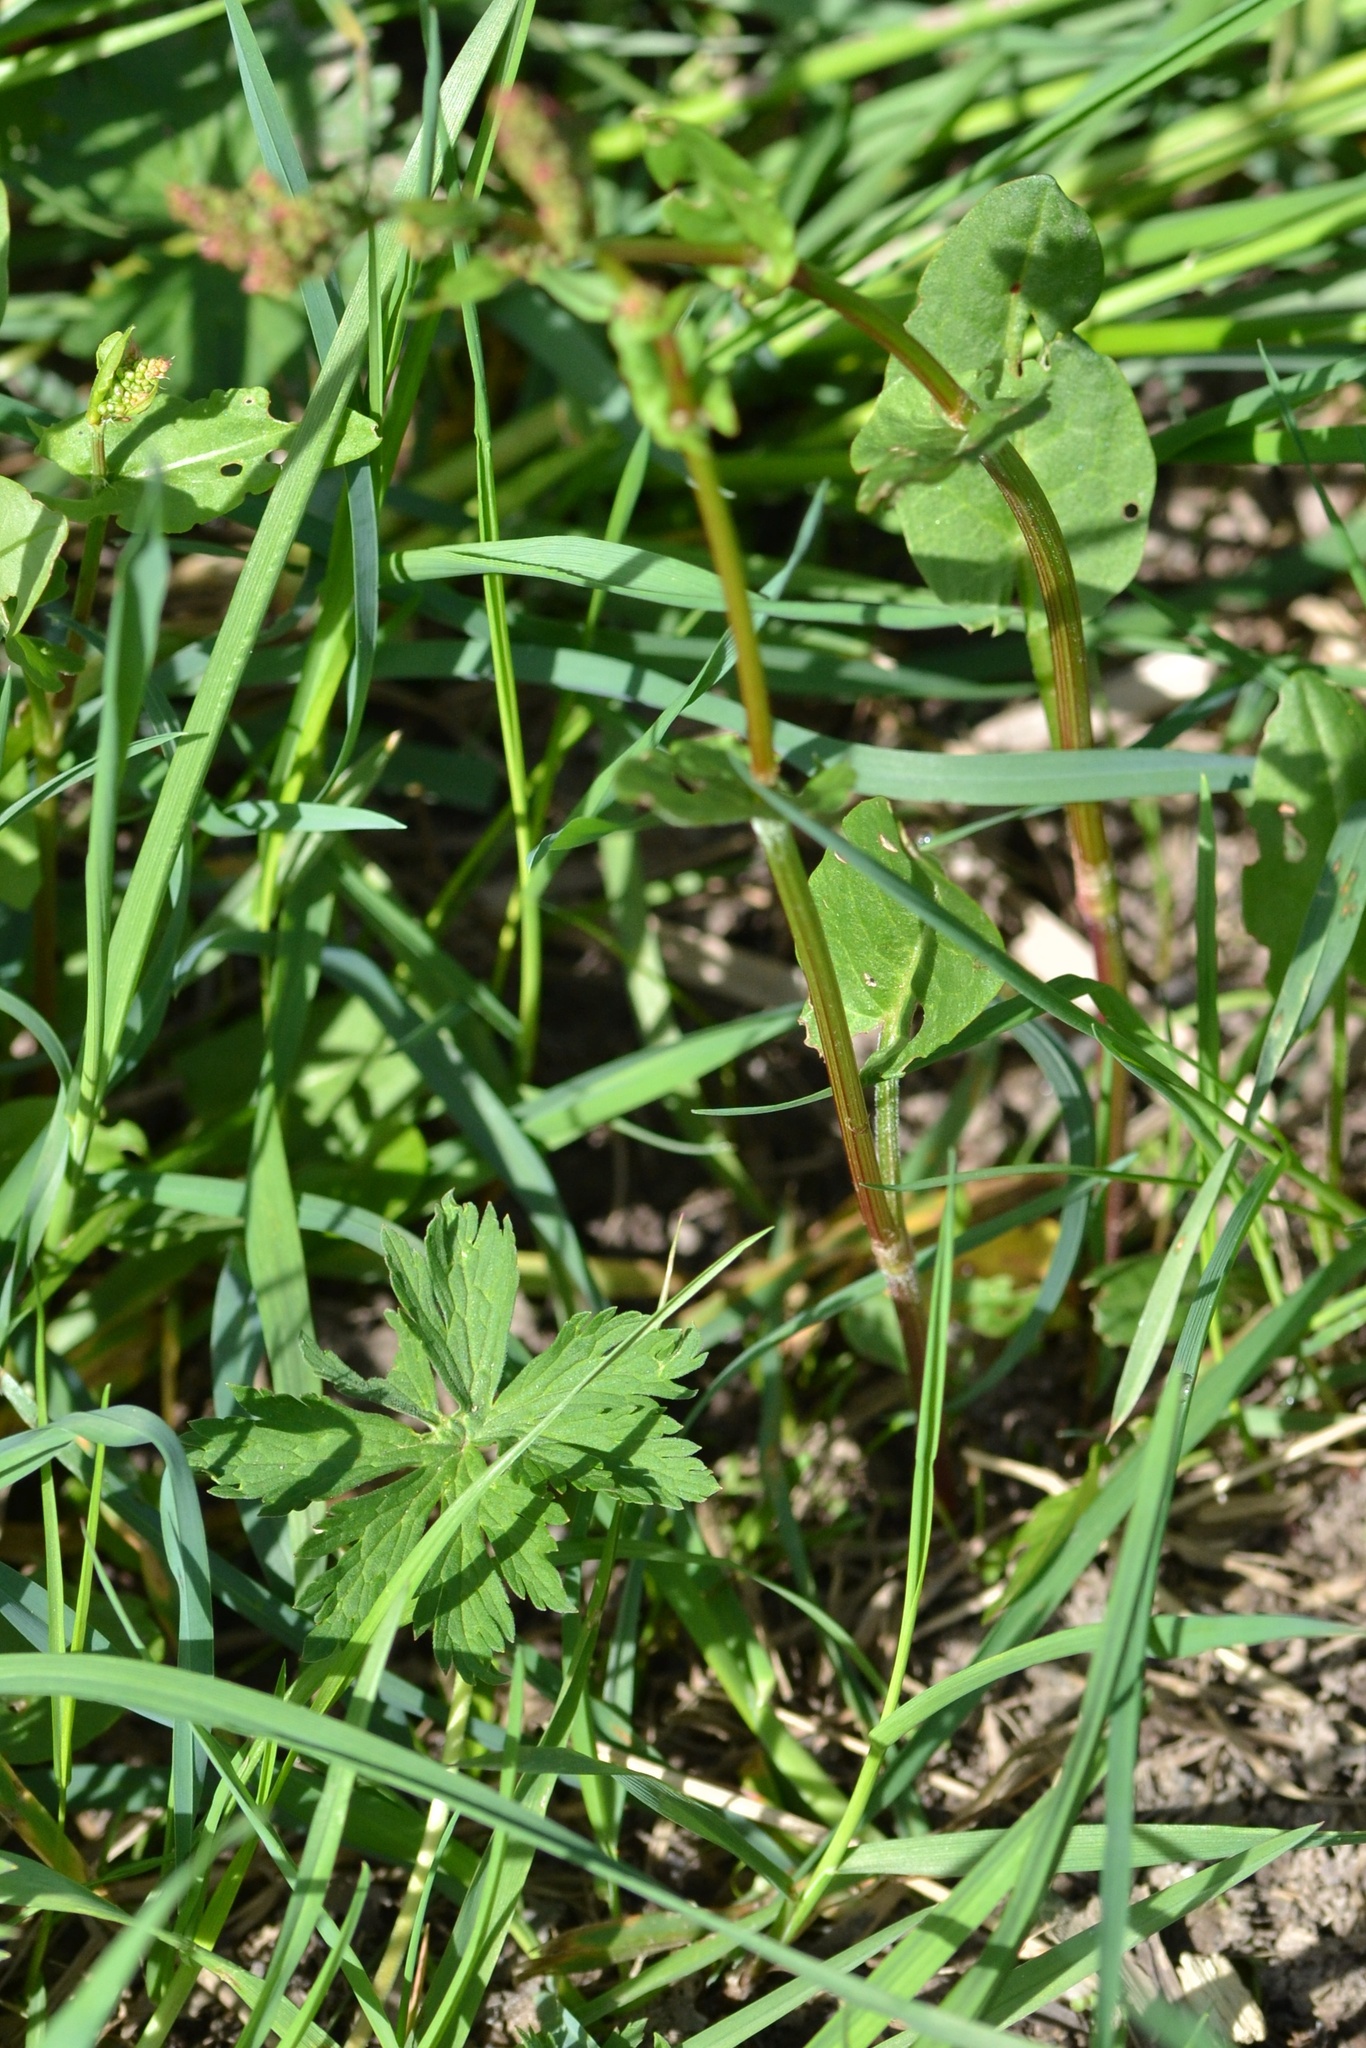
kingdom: Plantae
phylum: Tracheophyta
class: Magnoliopsida
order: Caryophyllales
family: Polygonaceae
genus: Rumex
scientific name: Rumex acetosa
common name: Garden sorrel
